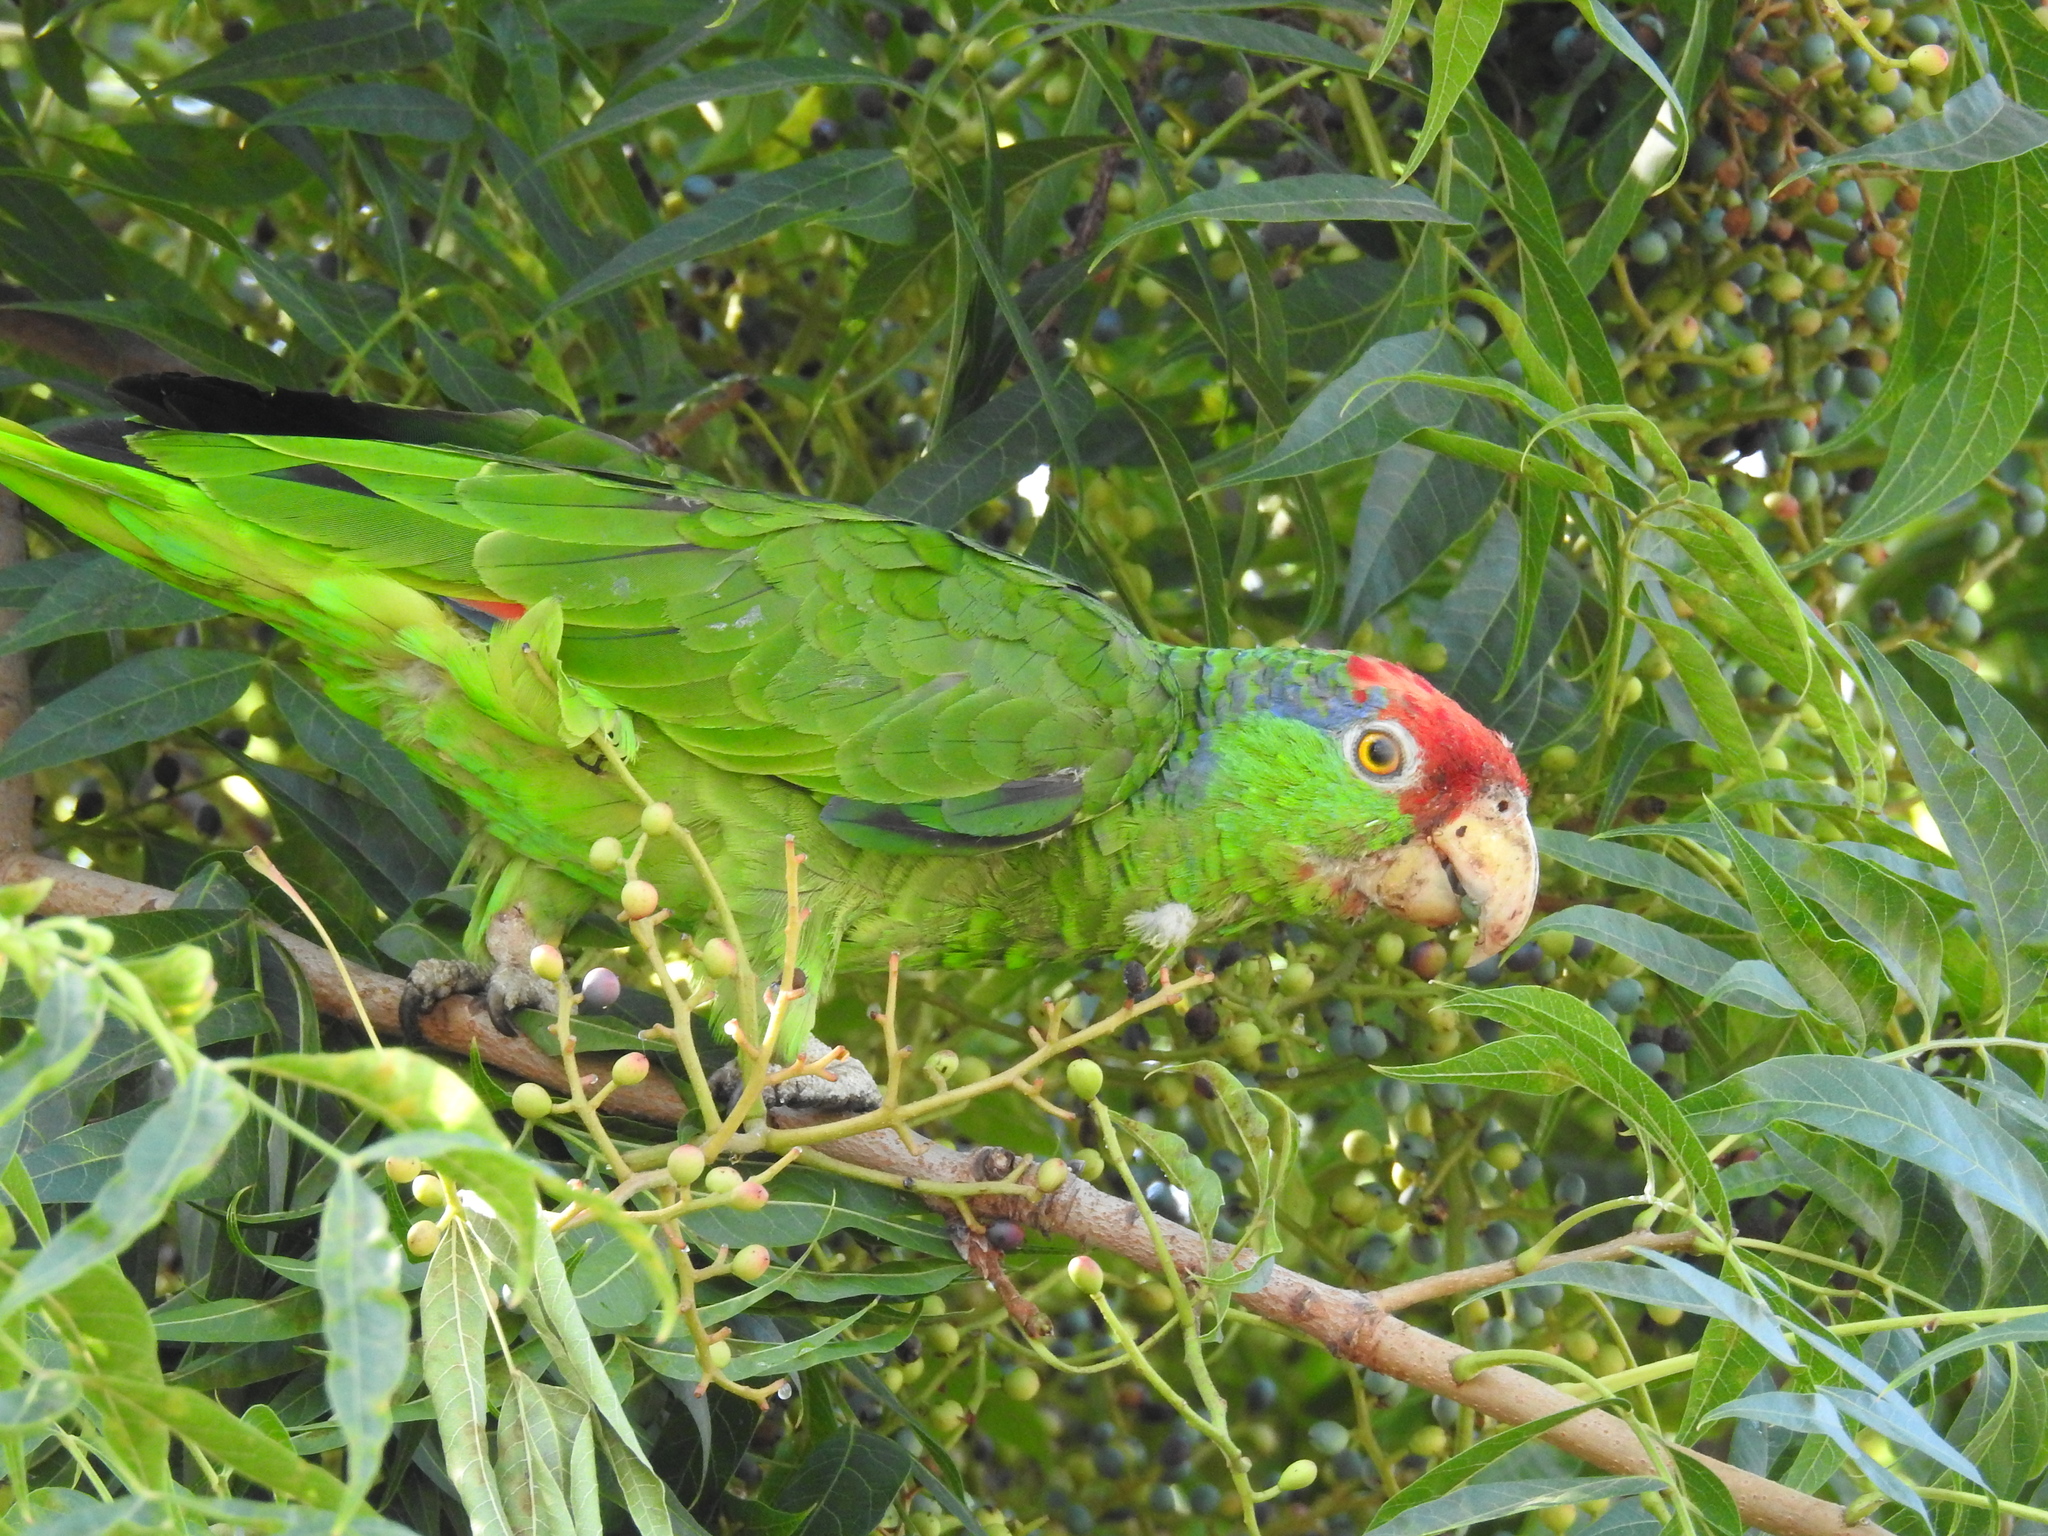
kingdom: Animalia
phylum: Chordata
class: Aves
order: Psittaciformes
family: Psittacidae
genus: Amazona
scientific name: Amazona viridigenalis
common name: Red-crowned amazon
